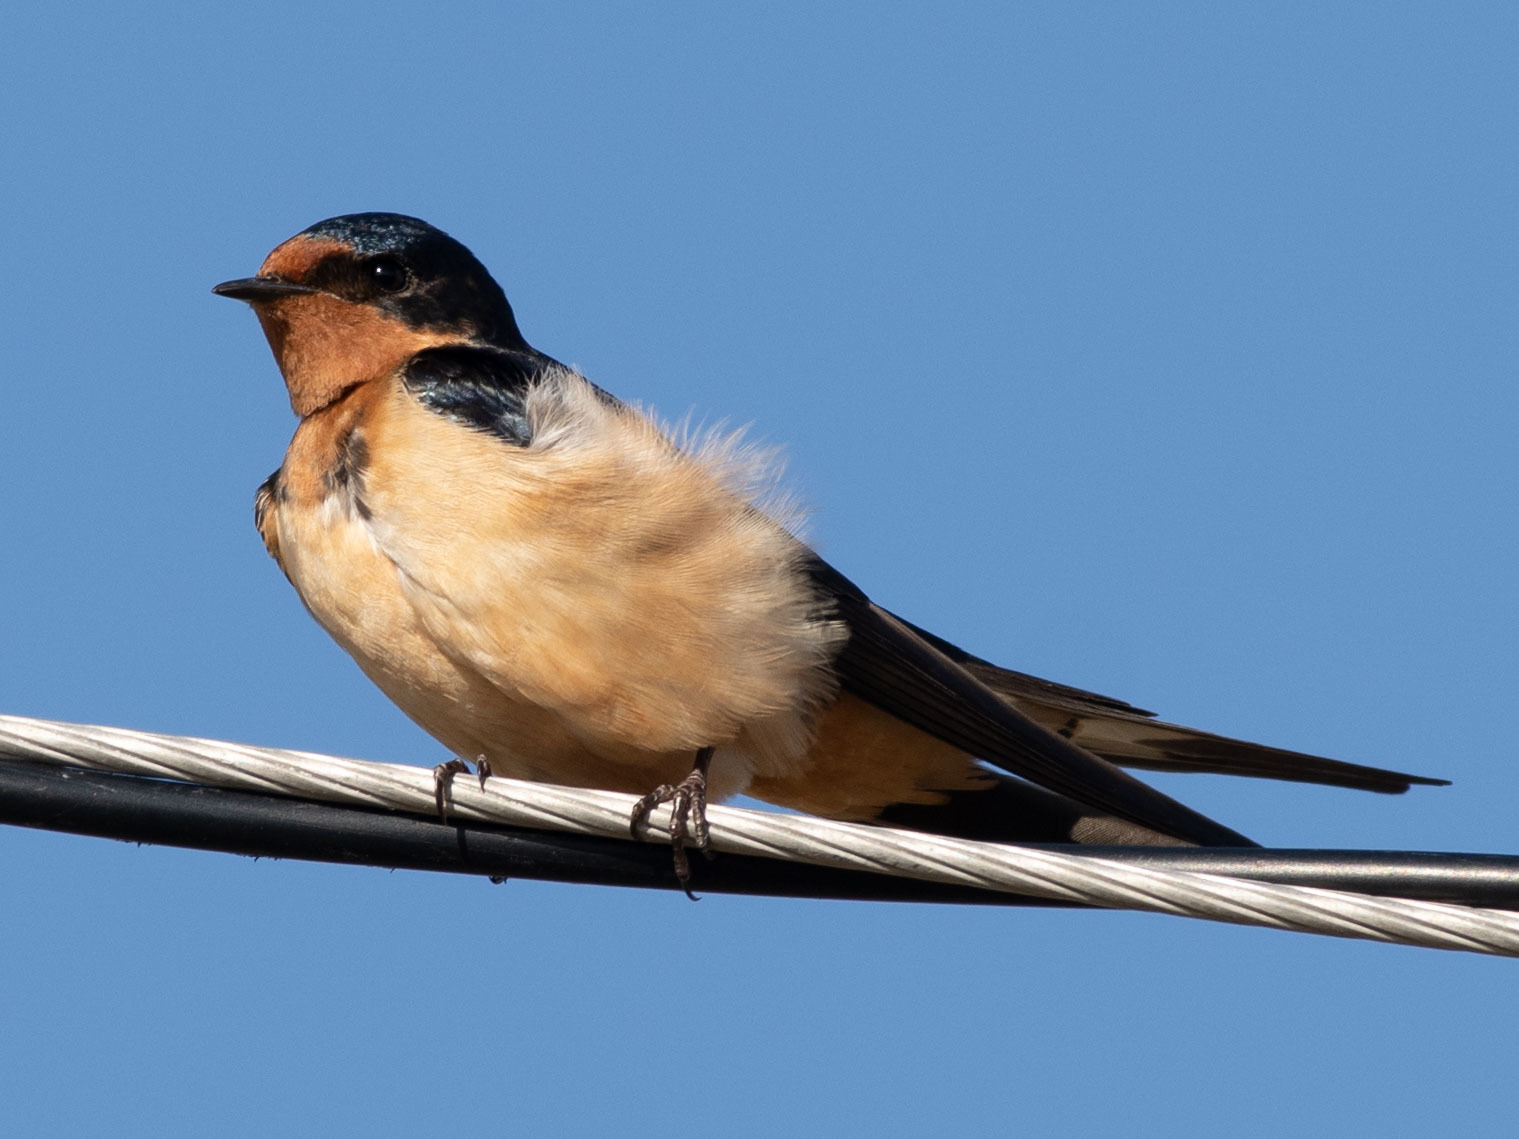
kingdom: Animalia
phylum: Chordata
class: Aves
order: Passeriformes
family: Hirundinidae
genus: Hirundo
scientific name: Hirundo rustica
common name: Barn swallow
